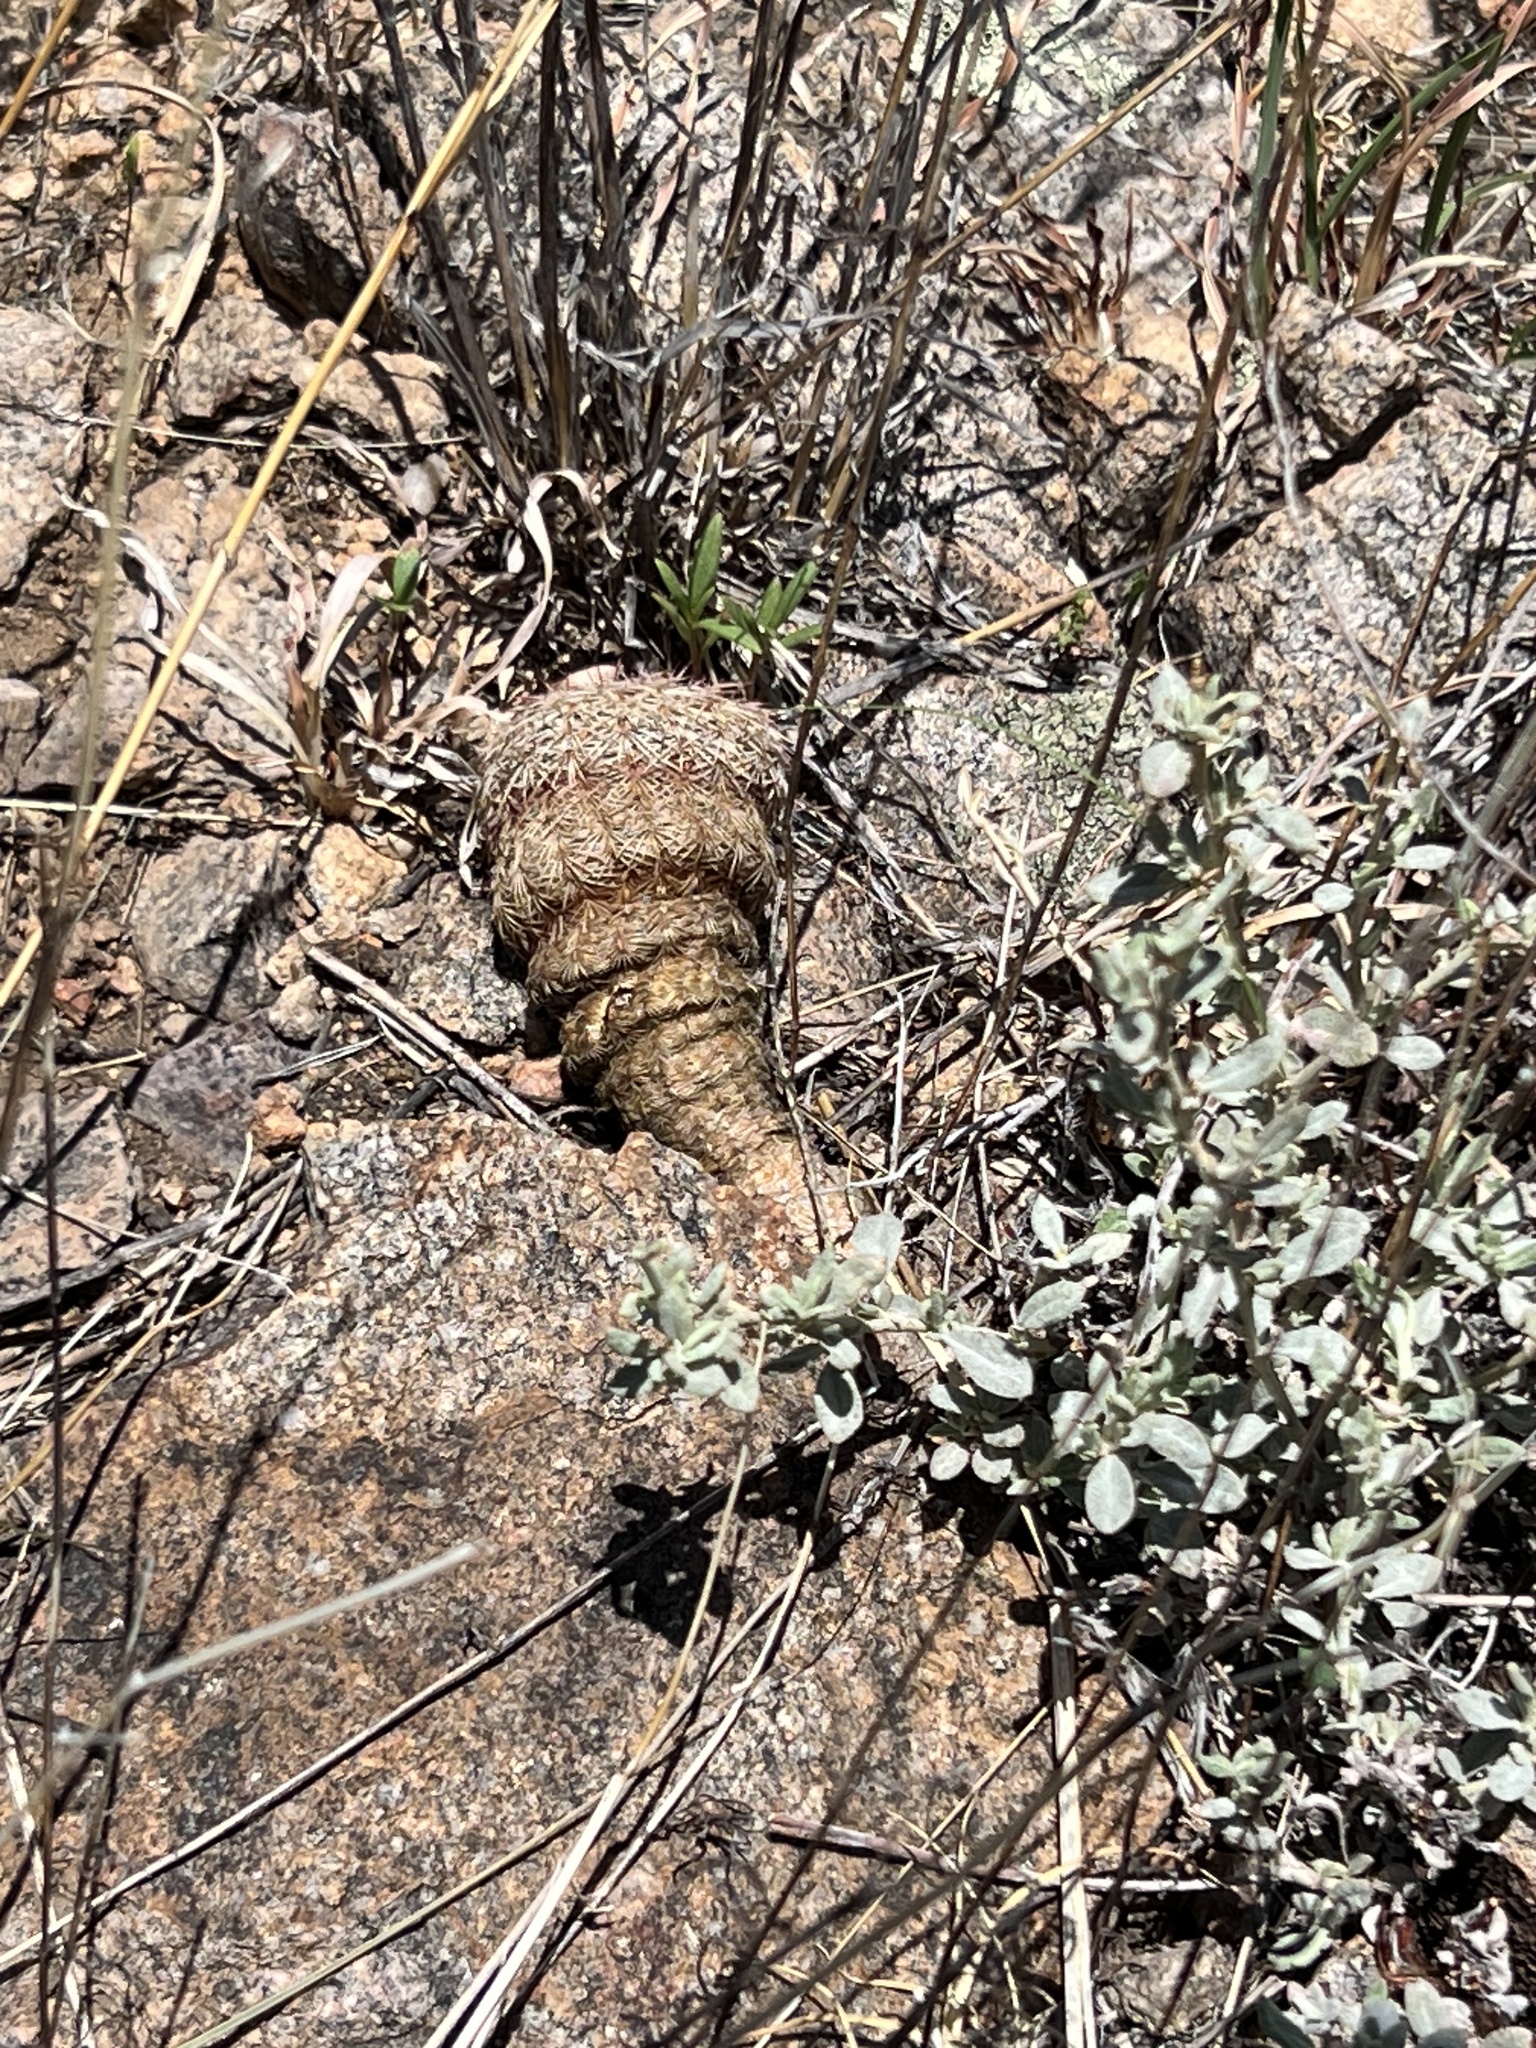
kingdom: Plantae
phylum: Tracheophyta
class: Magnoliopsida
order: Caryophyllales
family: Cactaceae
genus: Echinocereus
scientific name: Echinocereus rigidissimus
